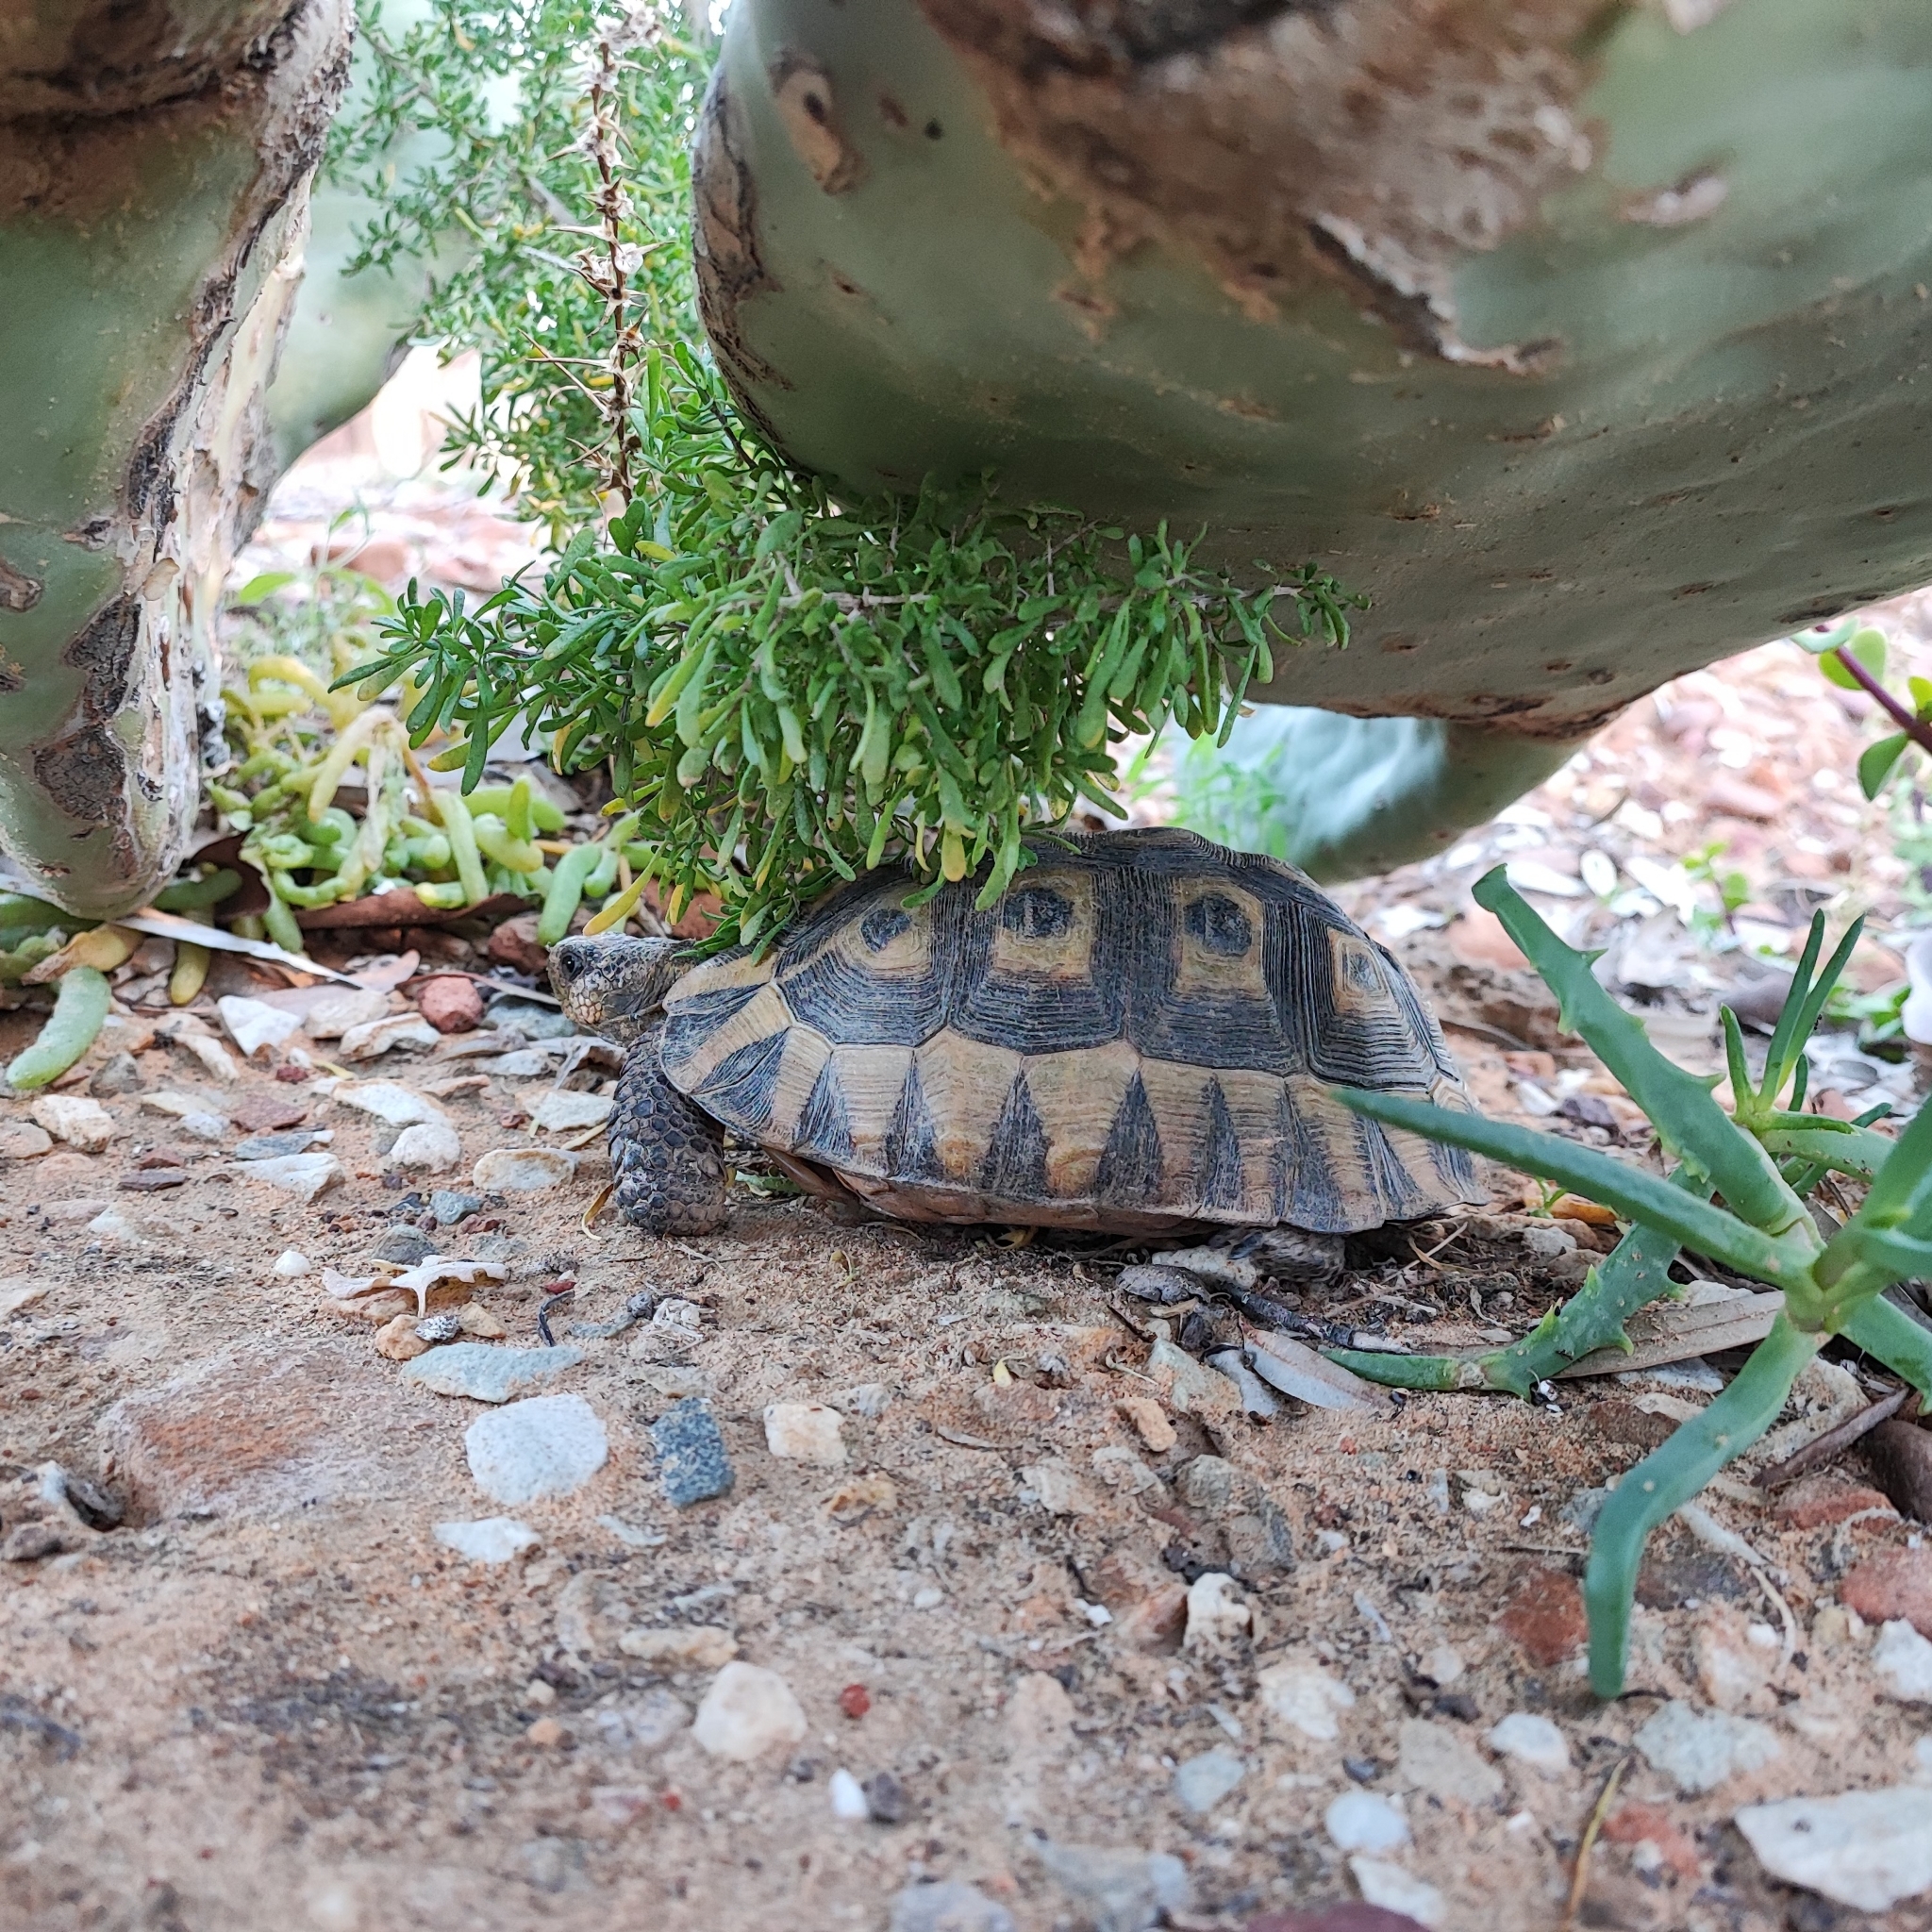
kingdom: Animalia
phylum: Chordata
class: Testudines
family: Testudinidae
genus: Chersina
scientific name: Chersina angulata
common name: South african bowsprit tortoise
